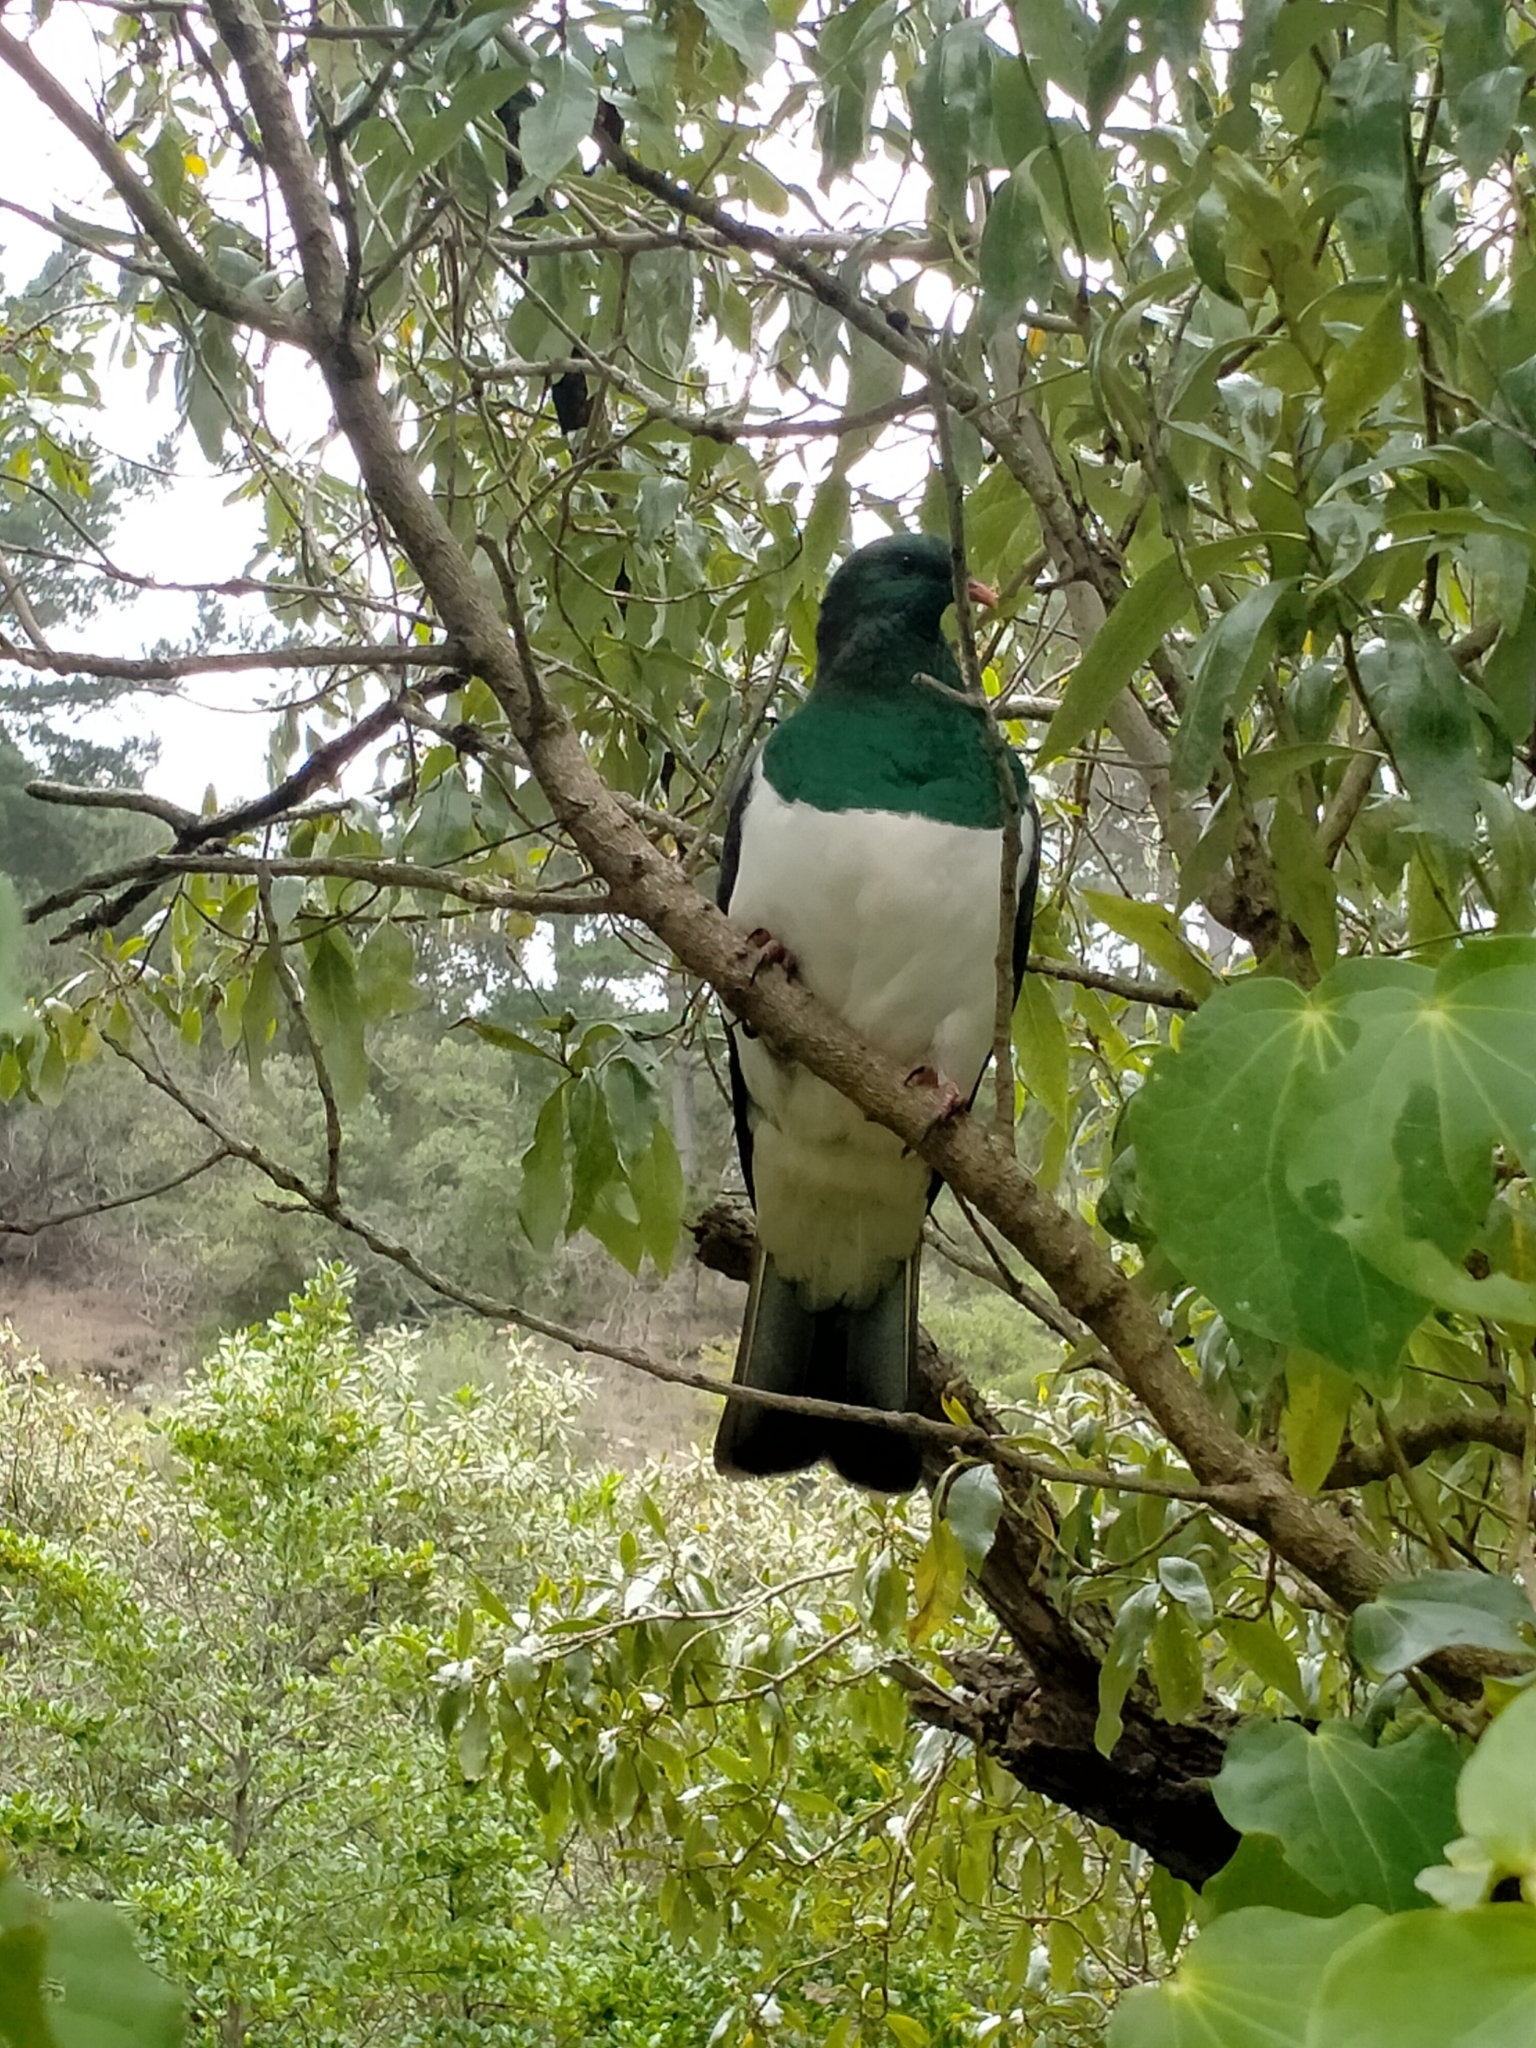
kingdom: Animalia
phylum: Chordata
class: Aves
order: Columbiformes
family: Columbidae
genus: Hemiphaga
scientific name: Hemiphaga novaeseelandiae
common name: New zealand pigeon
